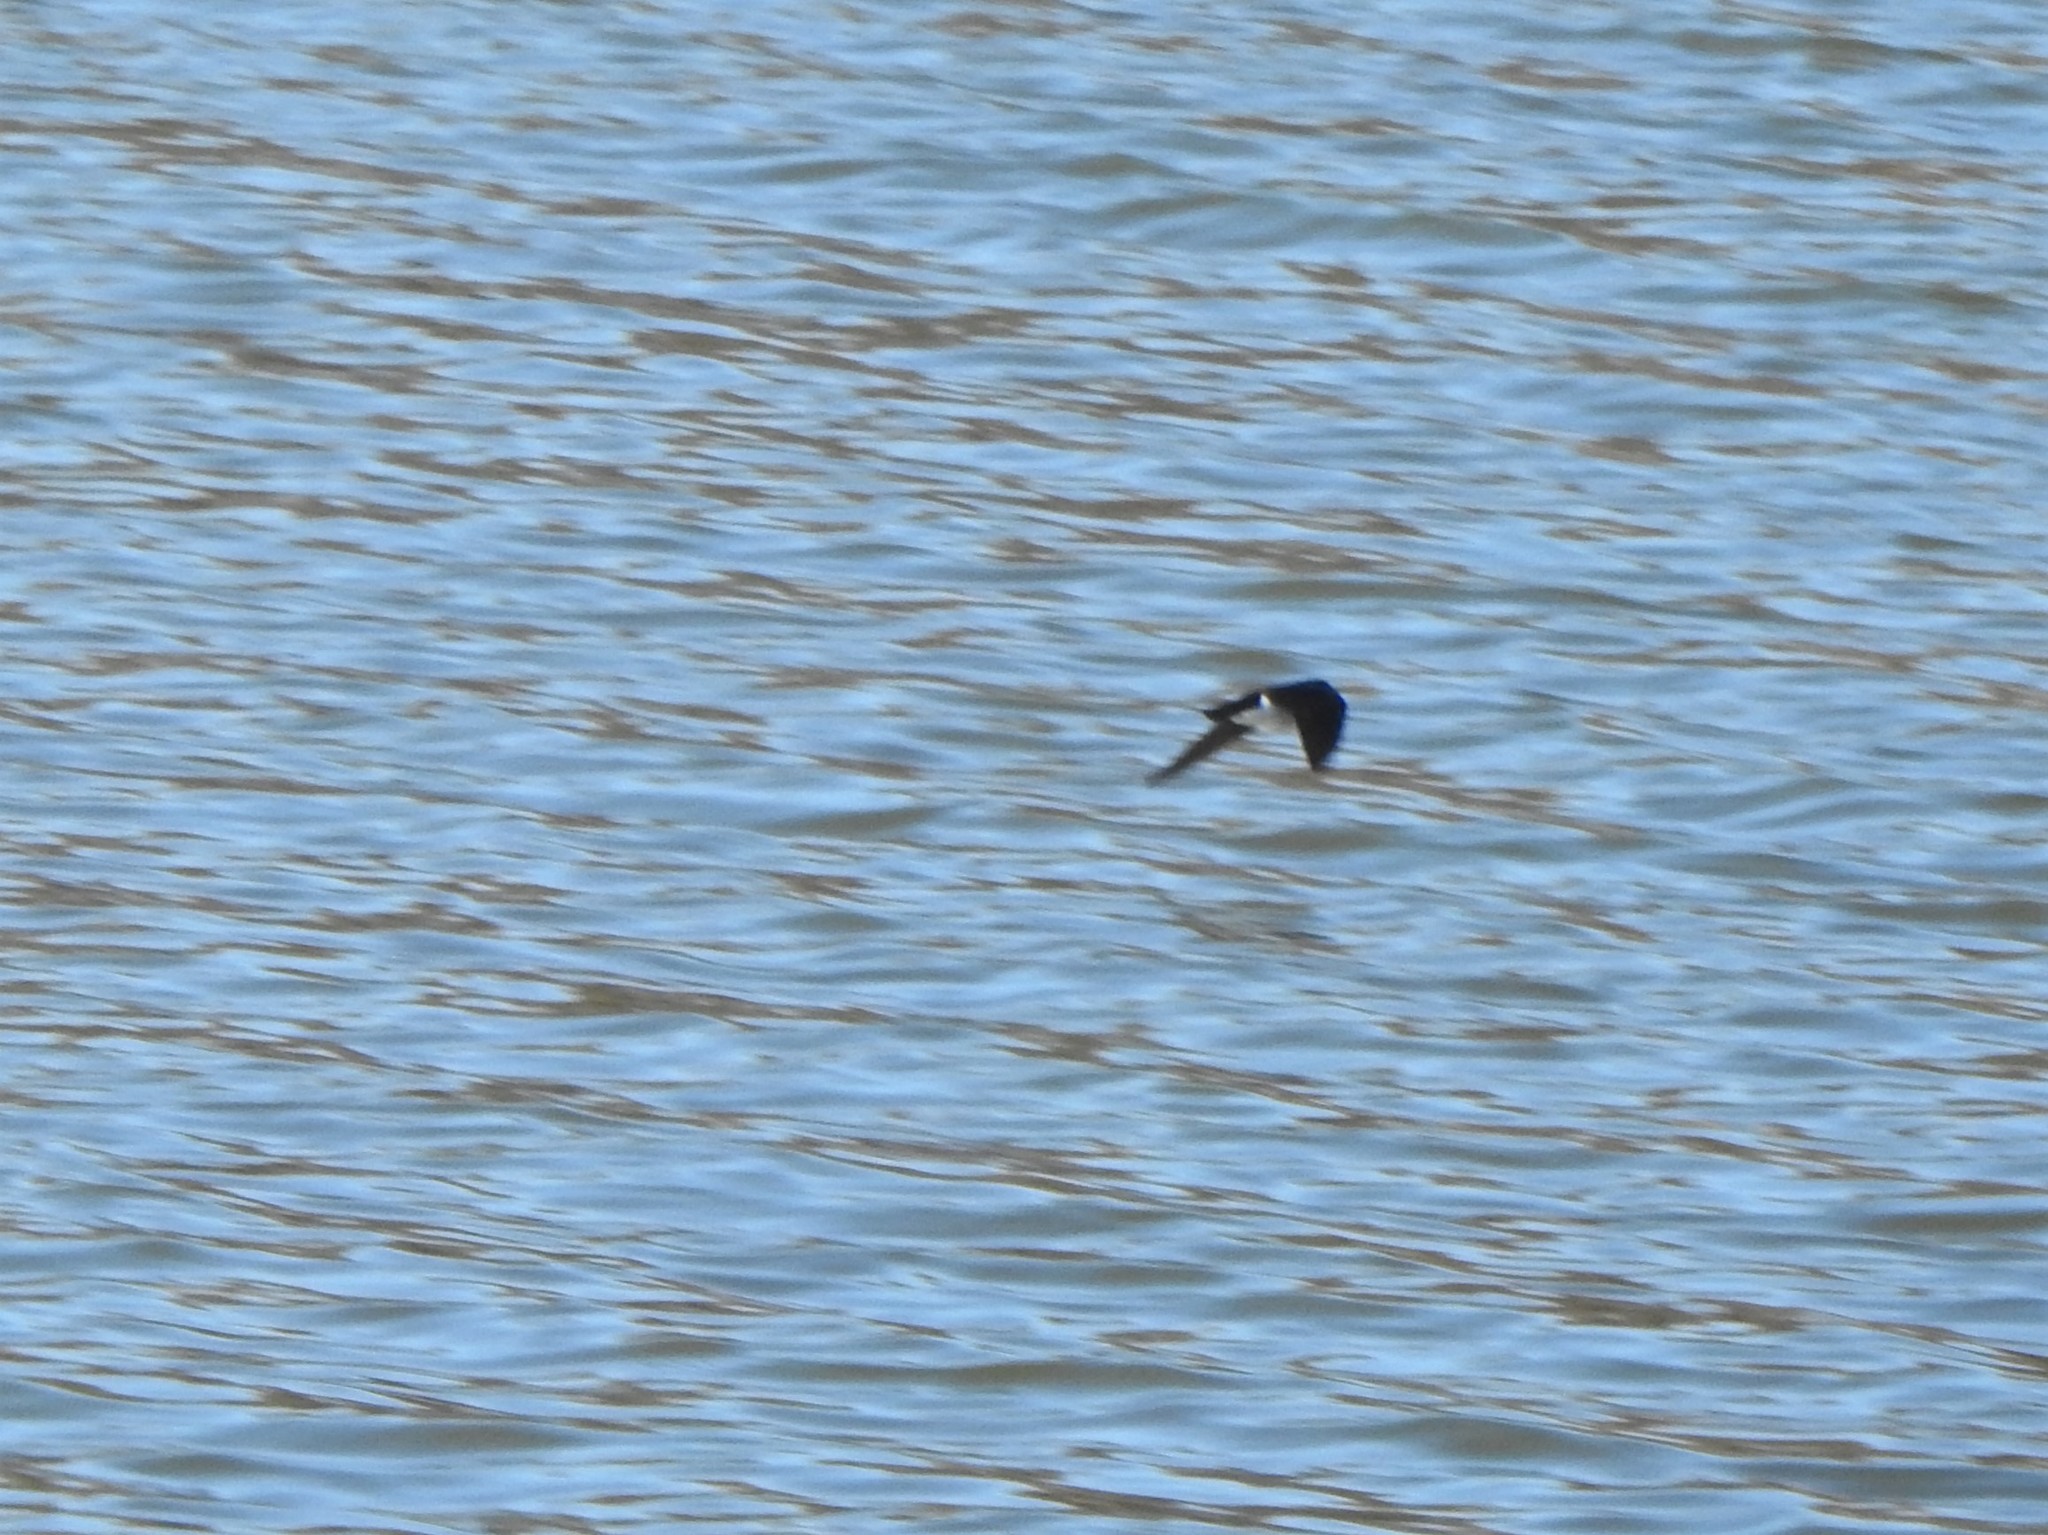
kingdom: Animalia
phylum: Chordata
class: Aves
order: Passeriformes
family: Hirundinidae
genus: Tachycineta
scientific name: Tachycineta bicolor
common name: Tree swallow
